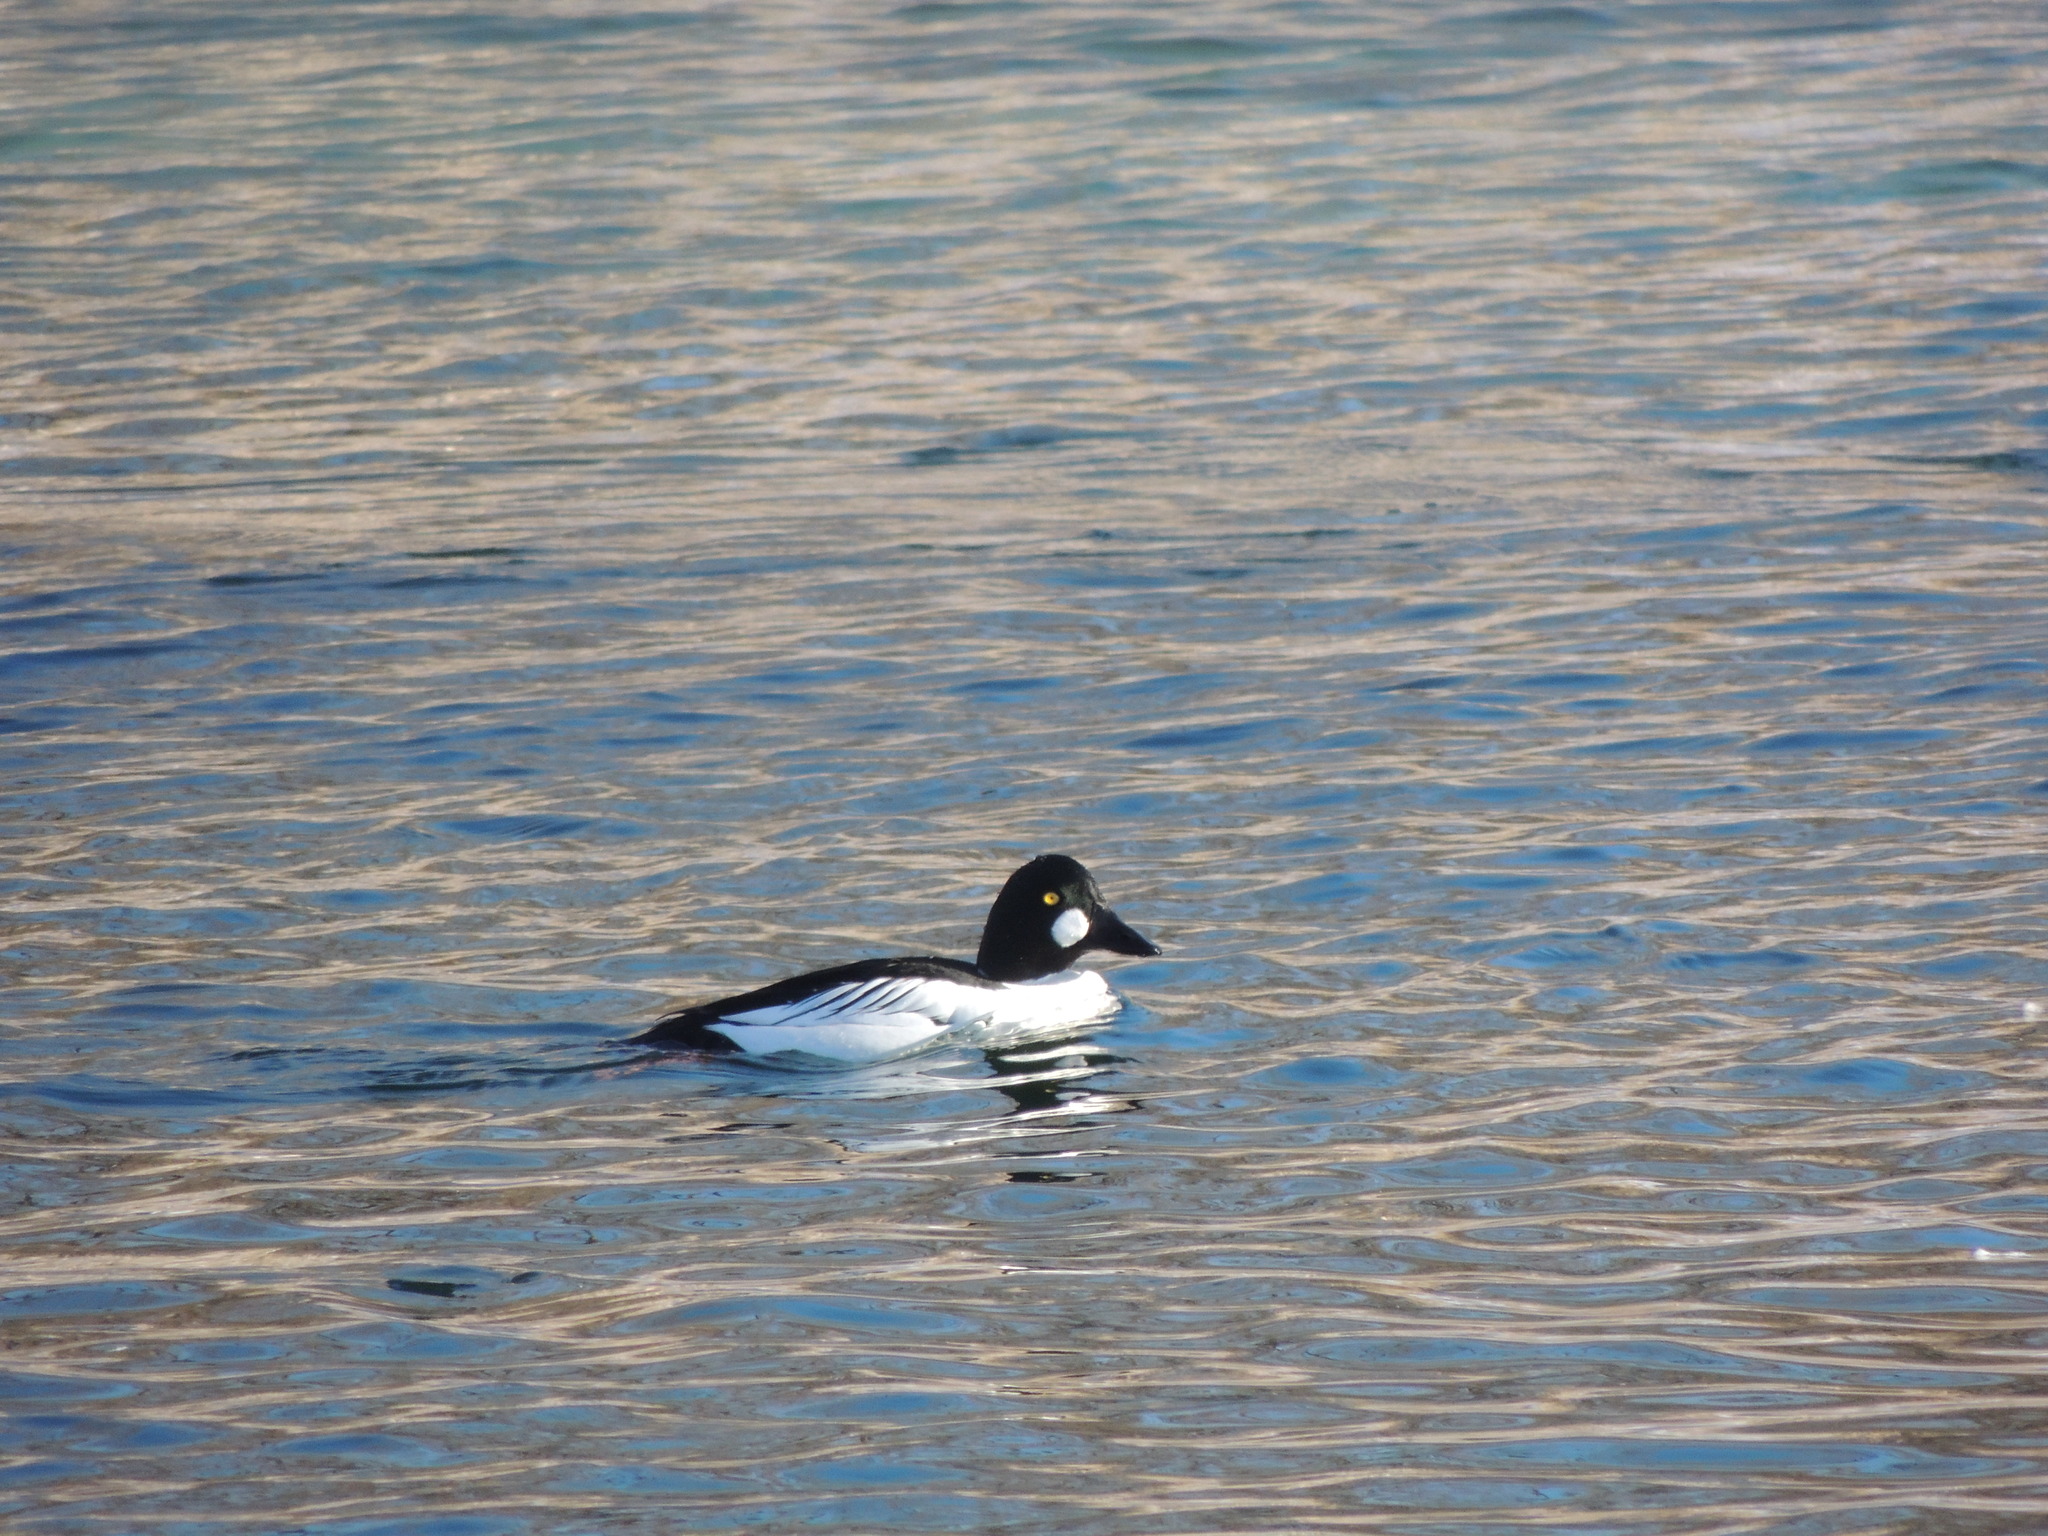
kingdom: Animalia
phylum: Chordata
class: Aves
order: Anseriformes
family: Anatidae
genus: Bucephala
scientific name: Bucephala clangula
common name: Common goldeneye
